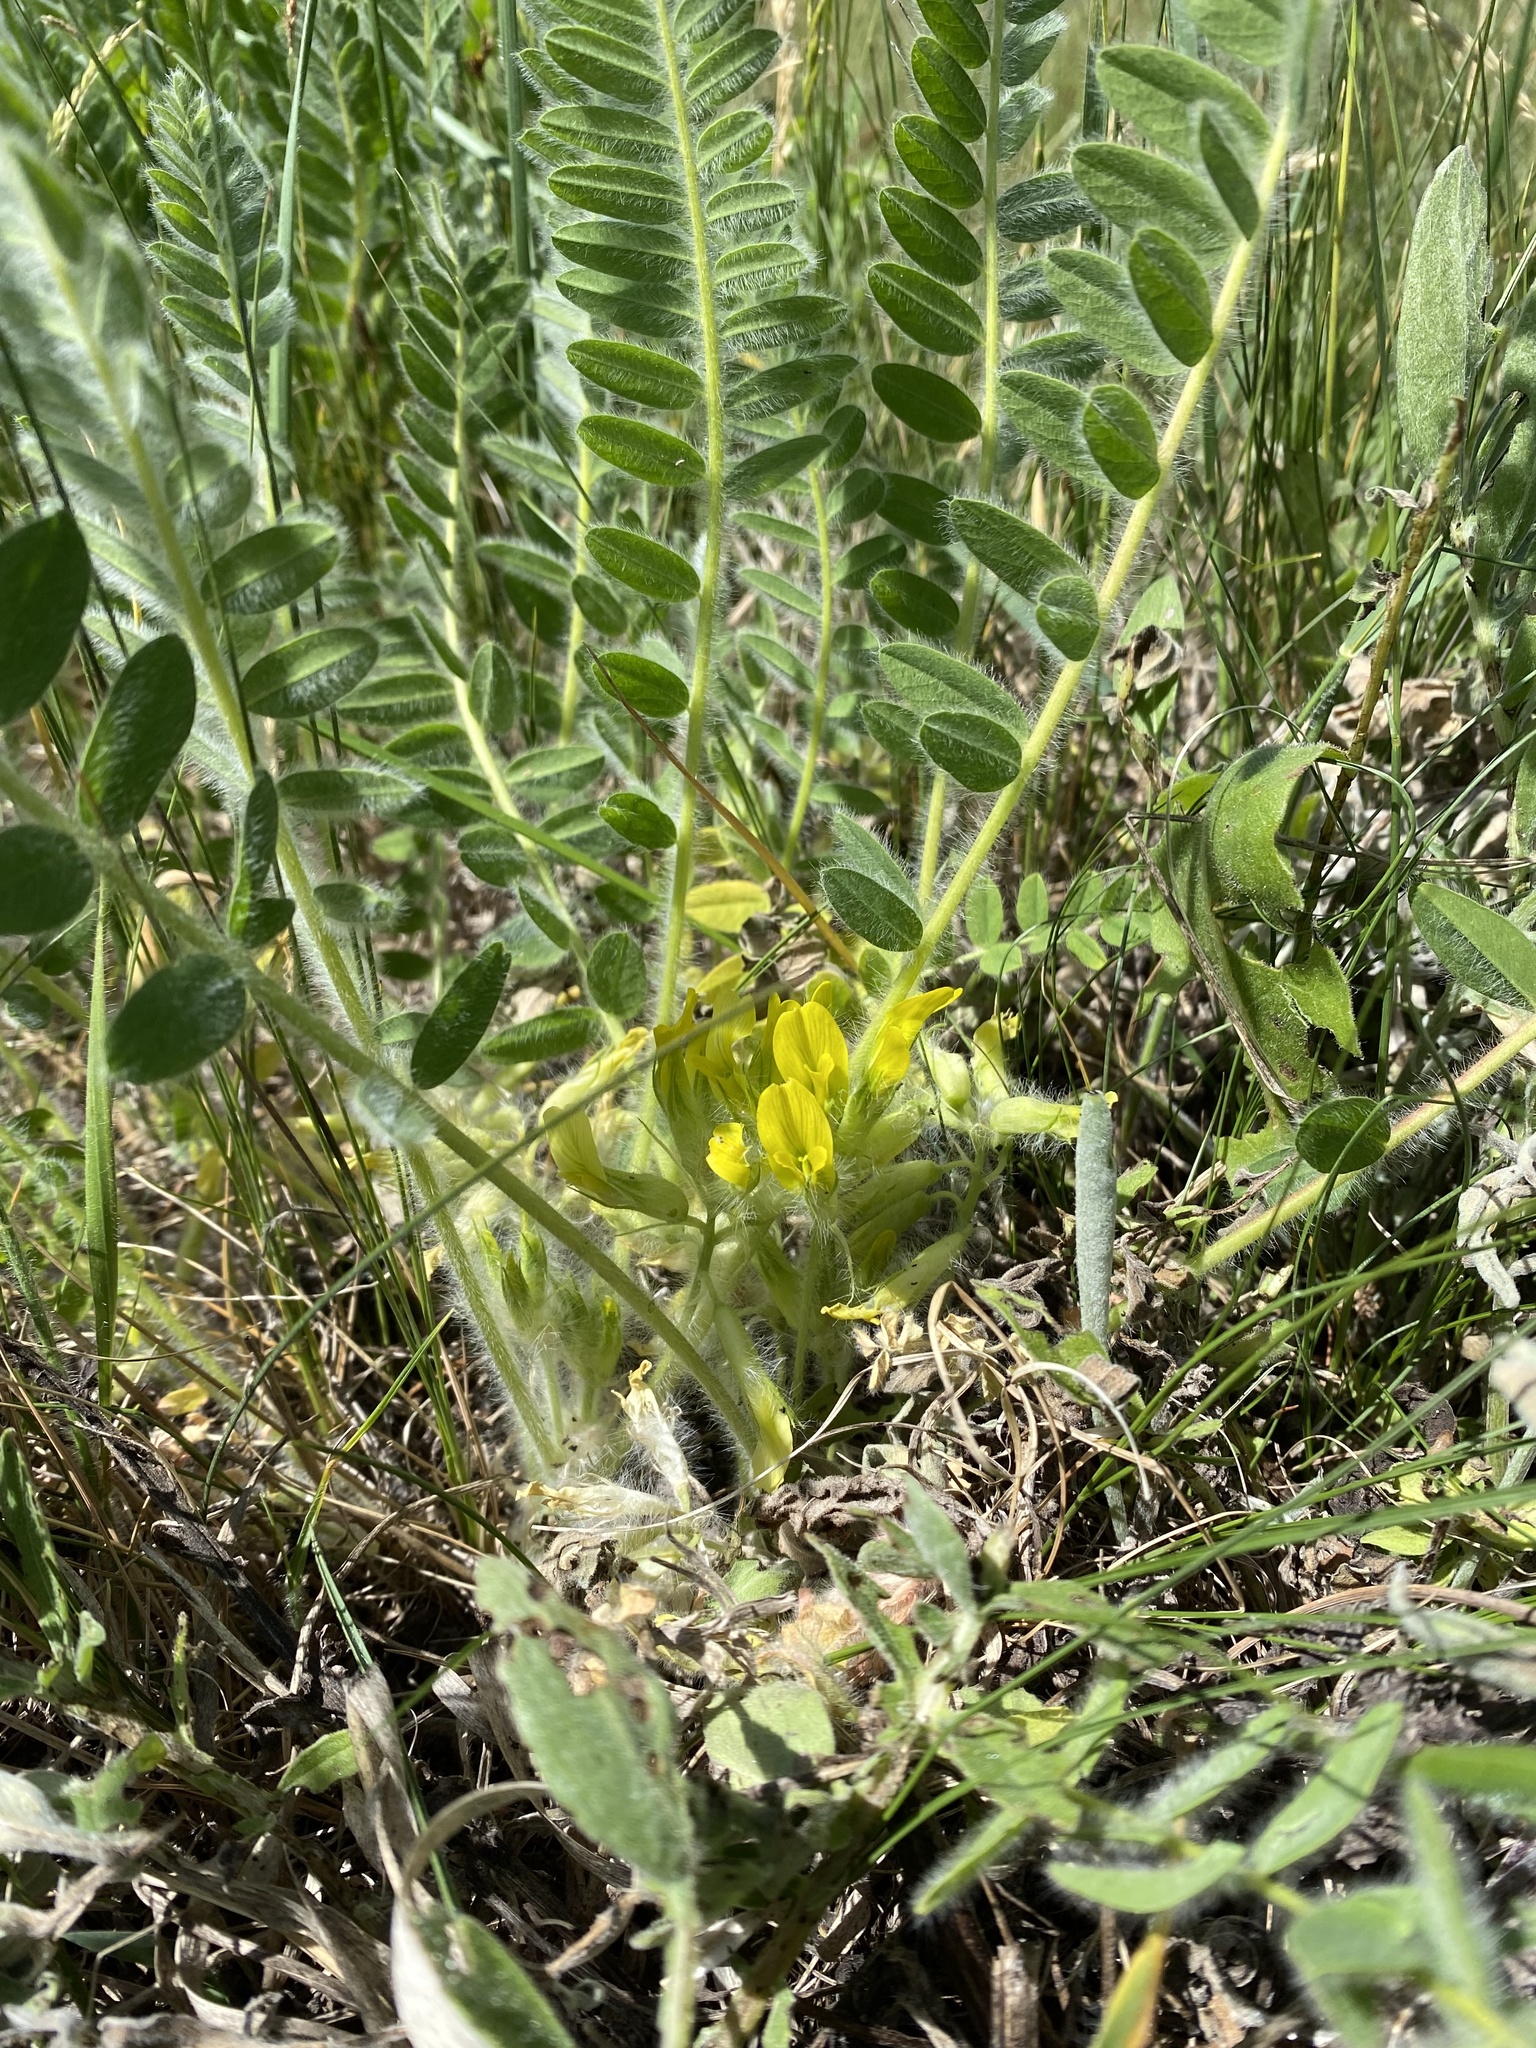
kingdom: Plantae
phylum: Tracheophyta
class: Magnoliopsida
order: Fabales
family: Fabaceae
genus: Astragalus
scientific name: Astragalus exscapus
